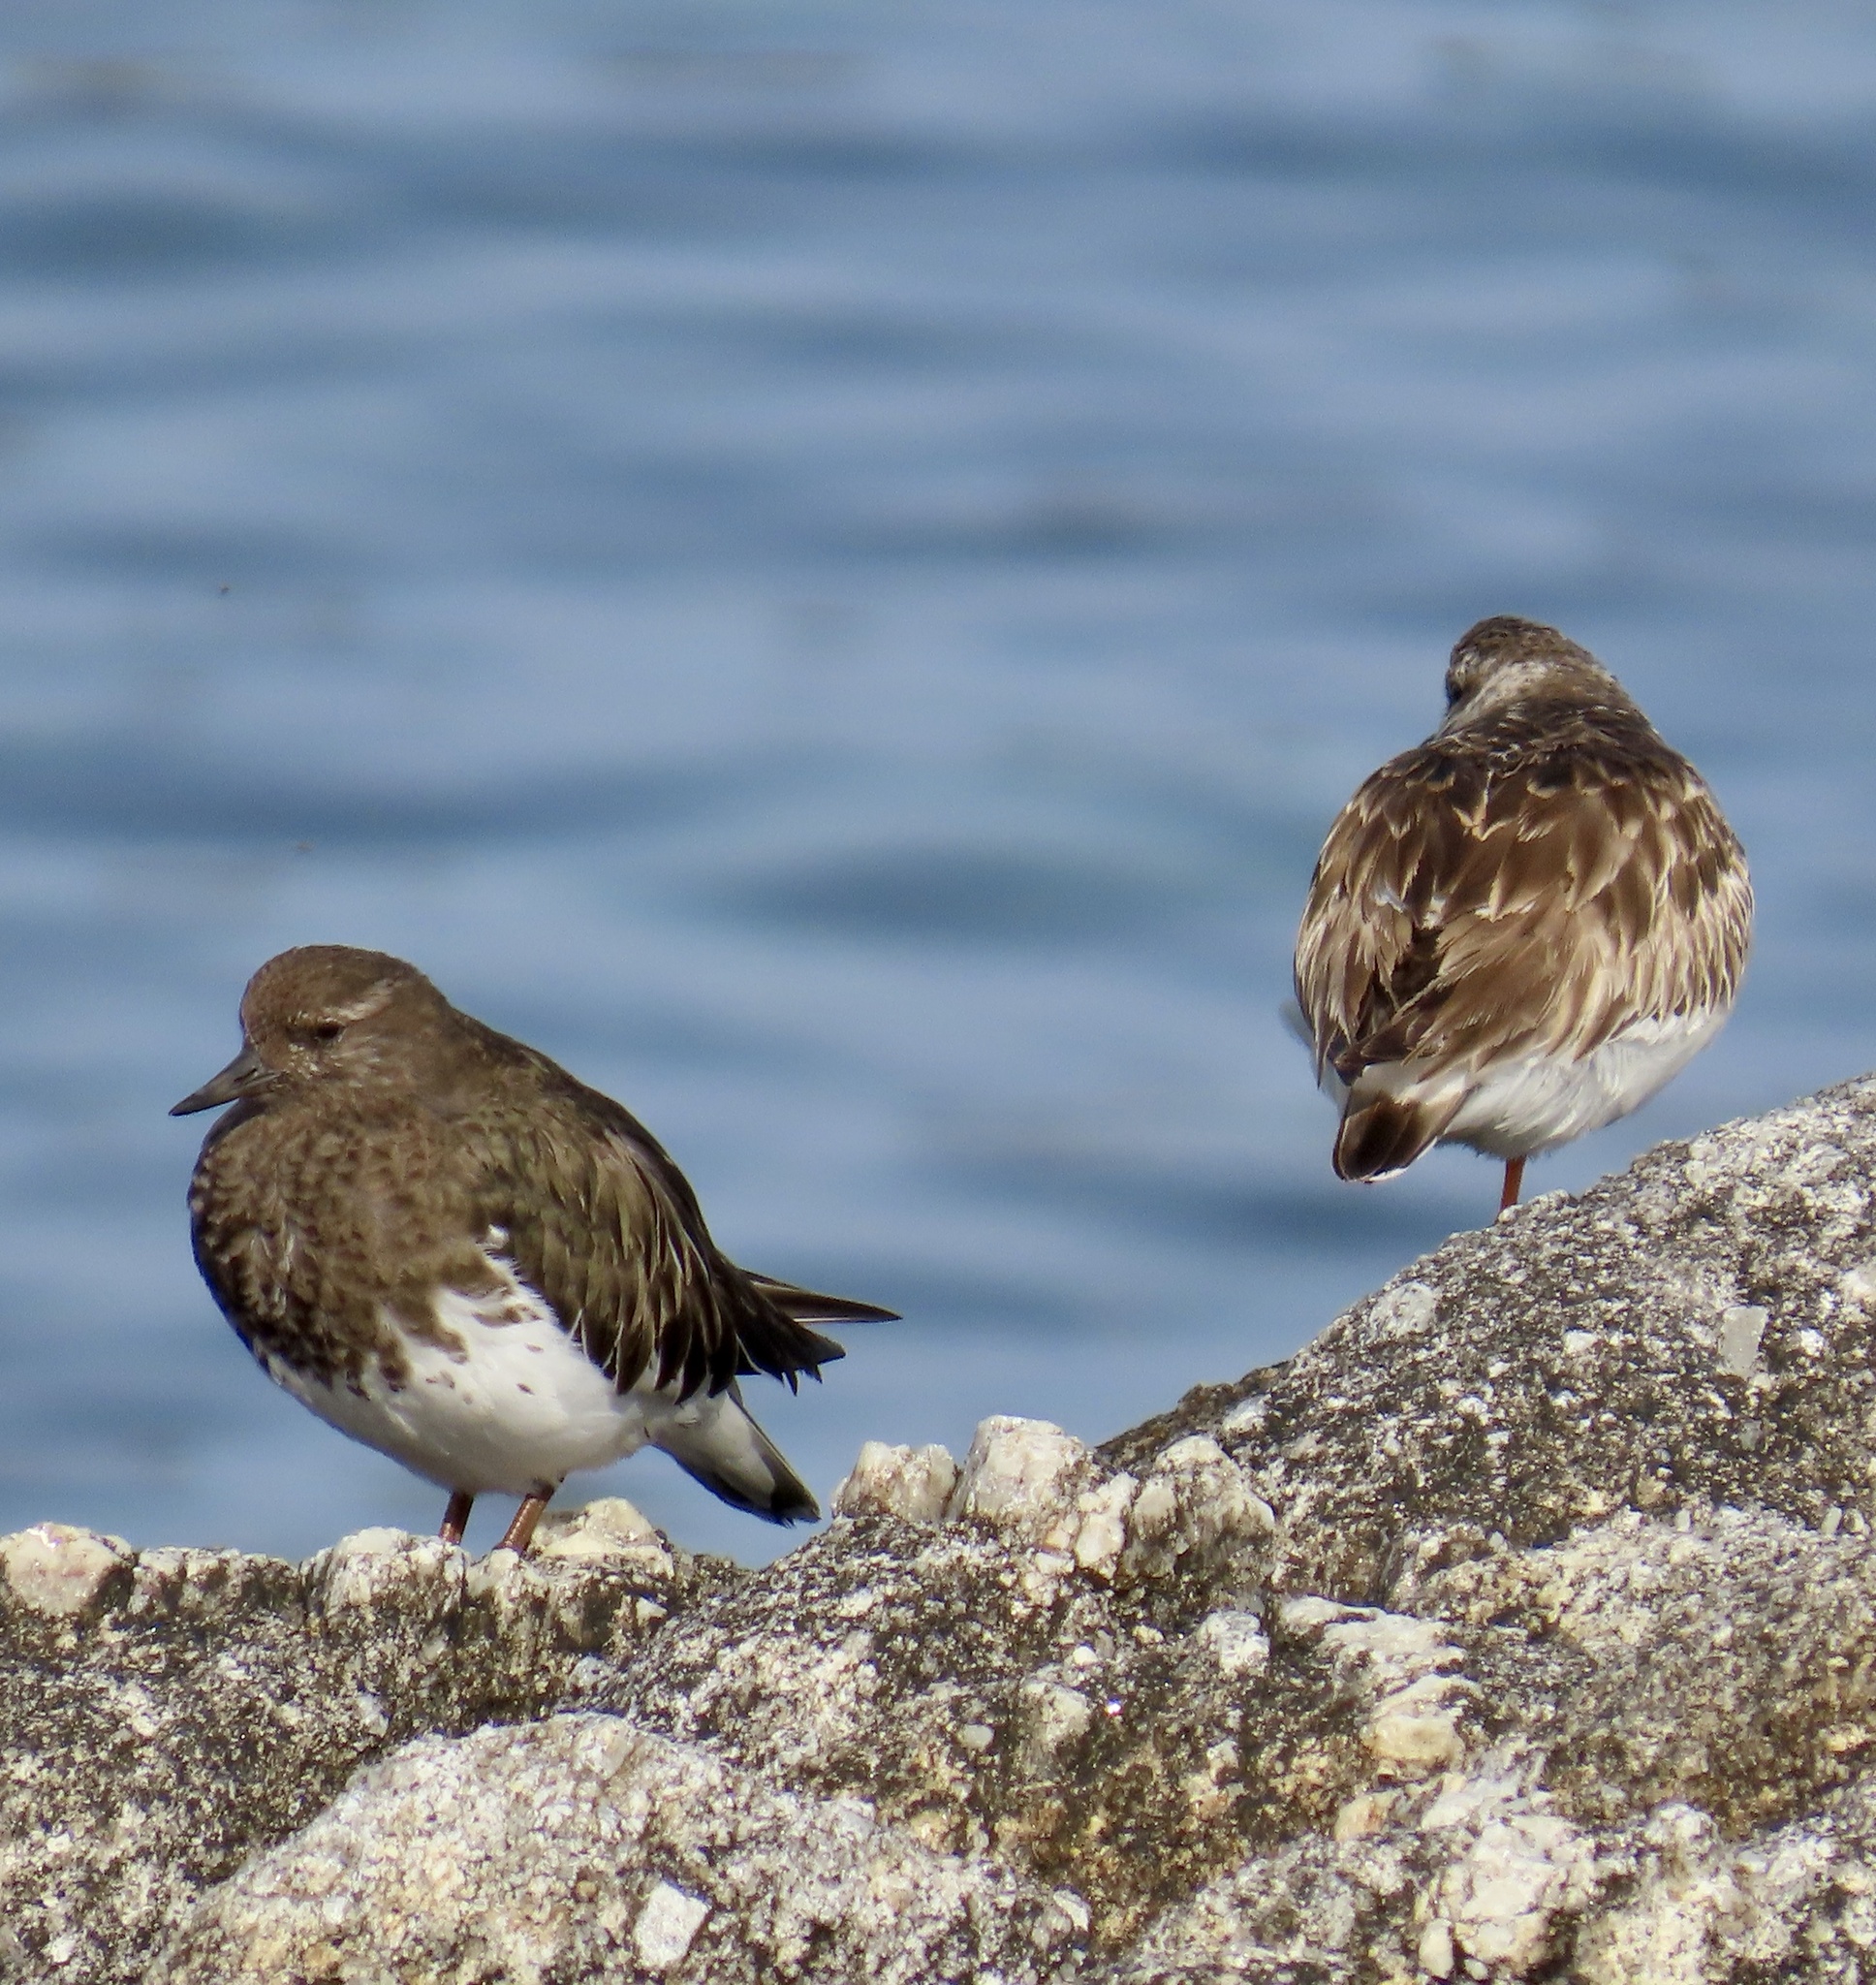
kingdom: Animalia
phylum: Chordata
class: Aves
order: Charadriiformes
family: Scolopacidae
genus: Arenaria
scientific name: Arenaria melanocephala
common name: Black turnstone
